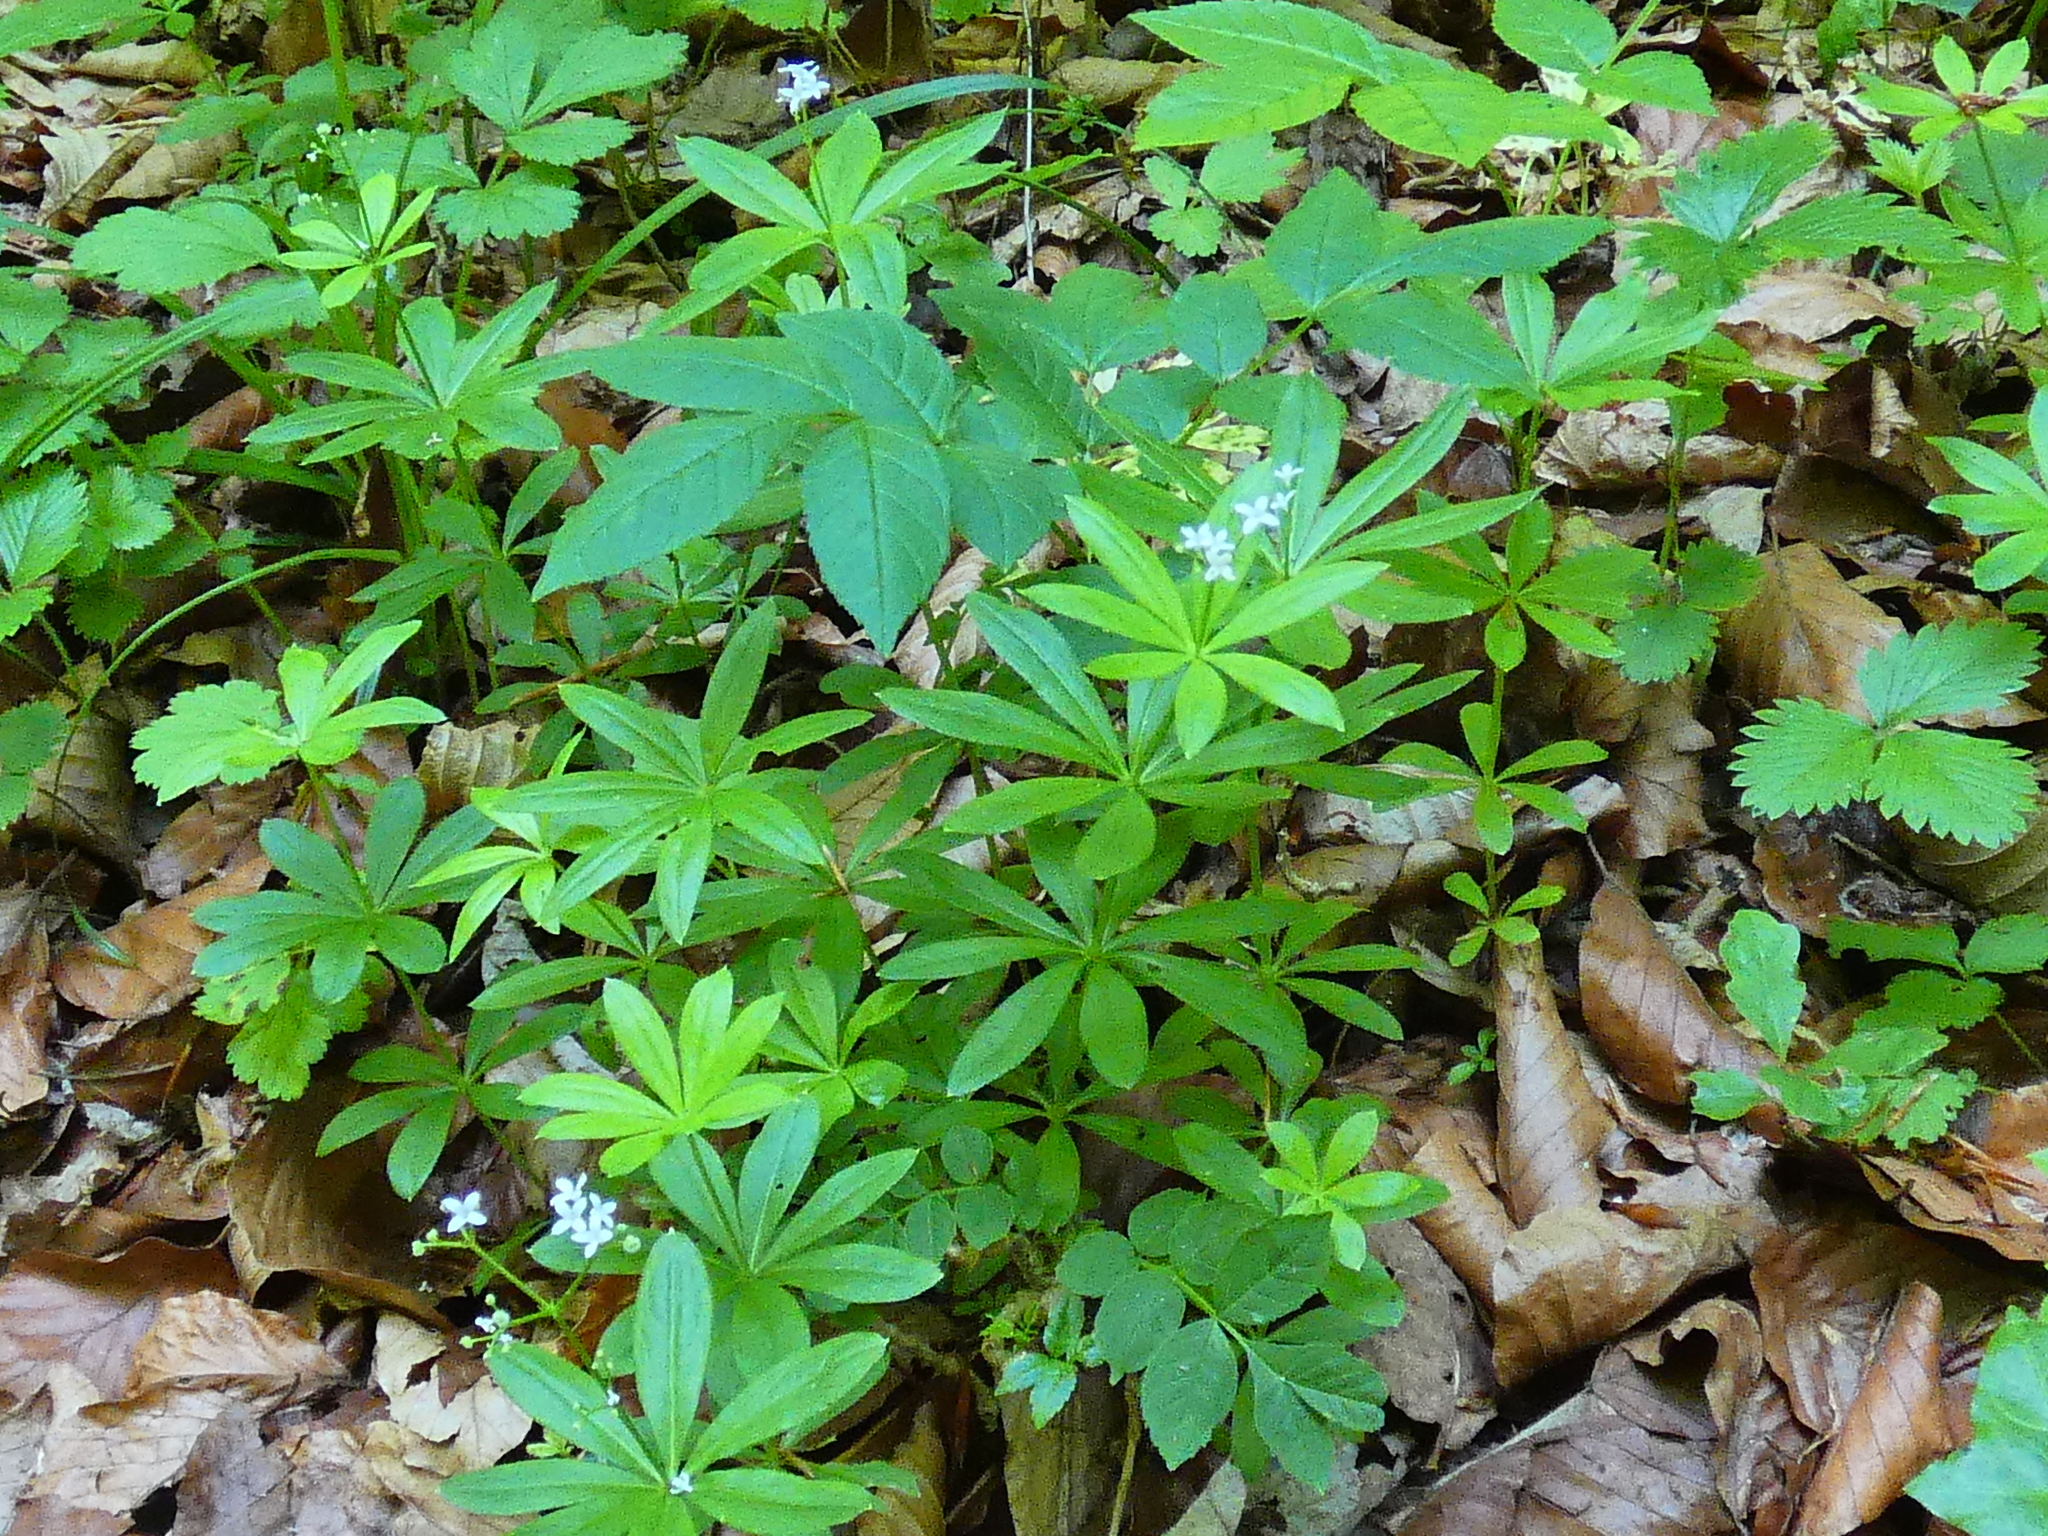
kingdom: Plantae
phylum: Tracheophyta
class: Magnoliopsida
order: Gentianales
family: Rubiaceae
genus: Galium
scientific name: Galium odoratum
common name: Sweet woodruff
